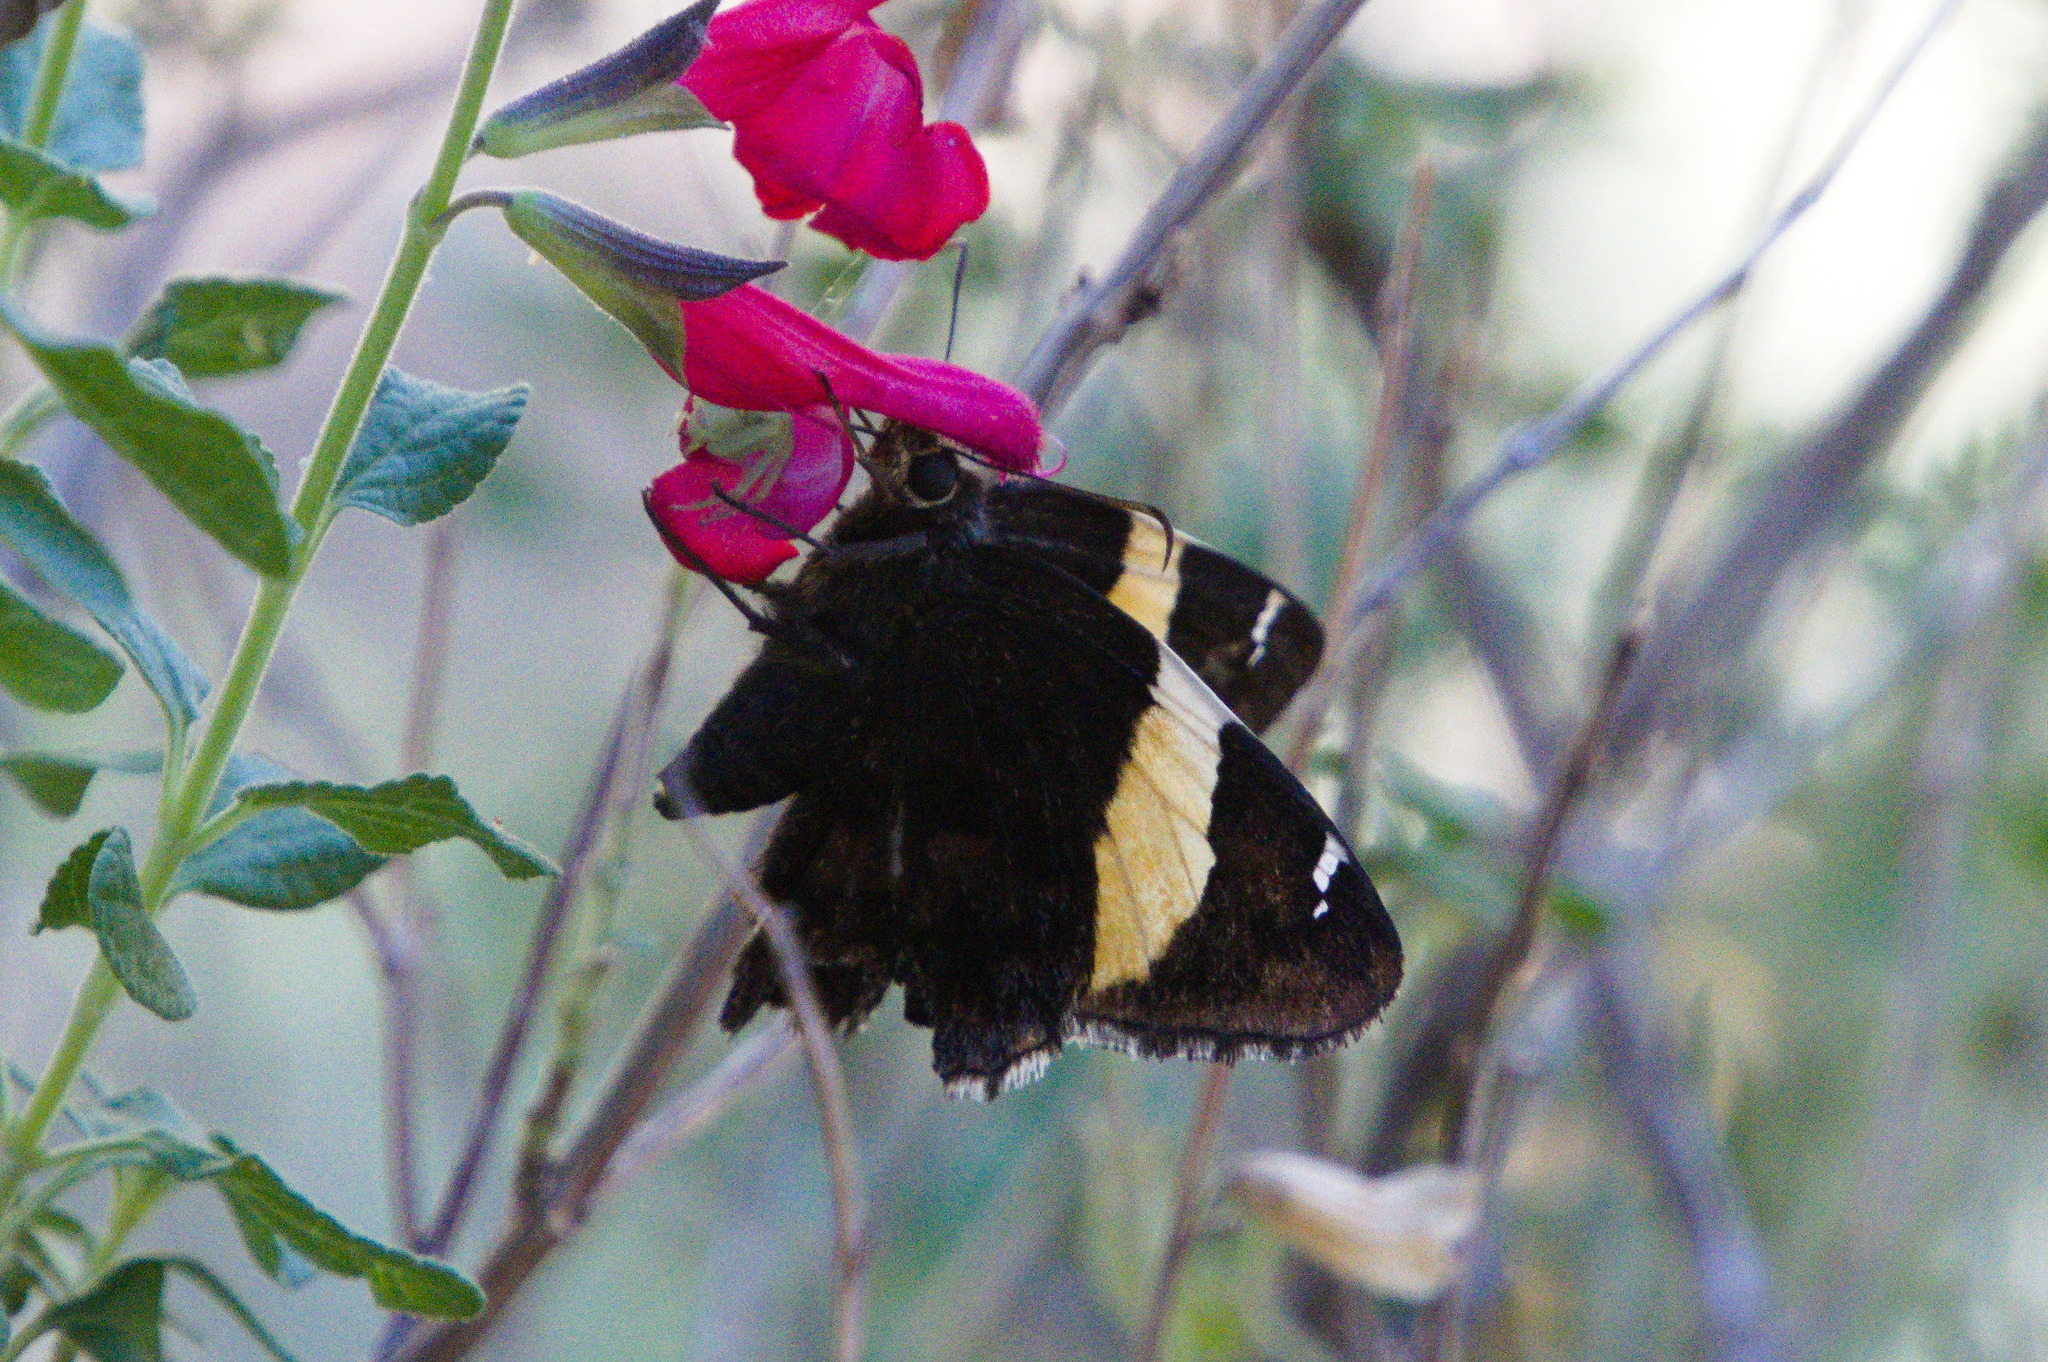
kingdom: Animalia
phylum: Arthropoda
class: Arachnida
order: Scorpiones
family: Bothriuridae
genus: Telegonus
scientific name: Telegonus cellus
